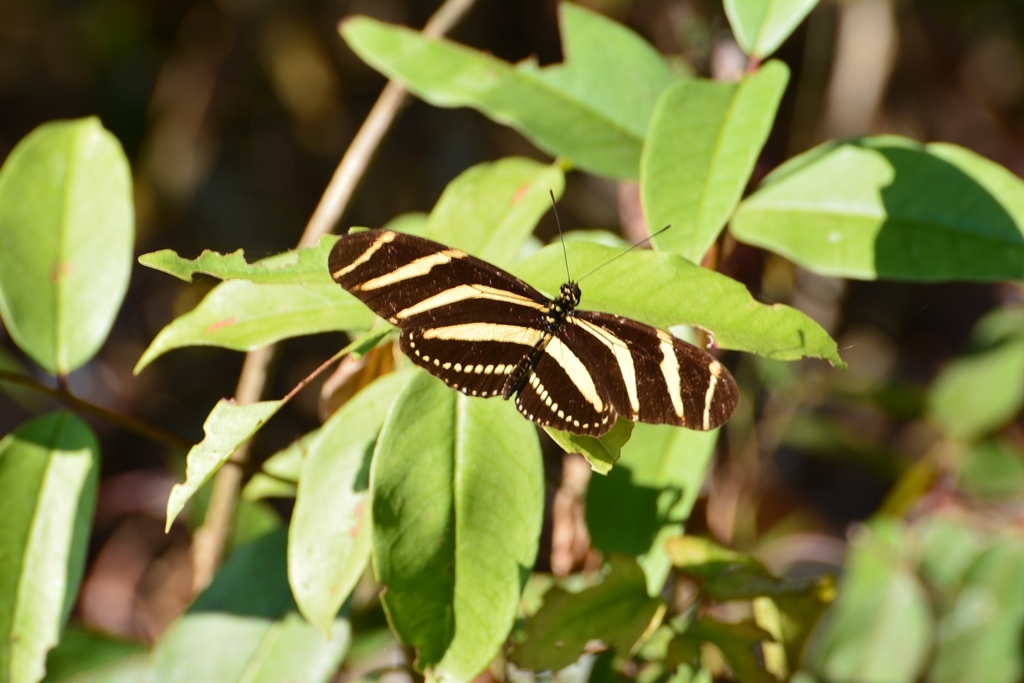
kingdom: Animalia
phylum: Arthropoda
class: Insecta
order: Lepidoptera
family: Nymphalidae
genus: Heliconius
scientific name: Heliconius charithonia
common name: Zebra long wing
